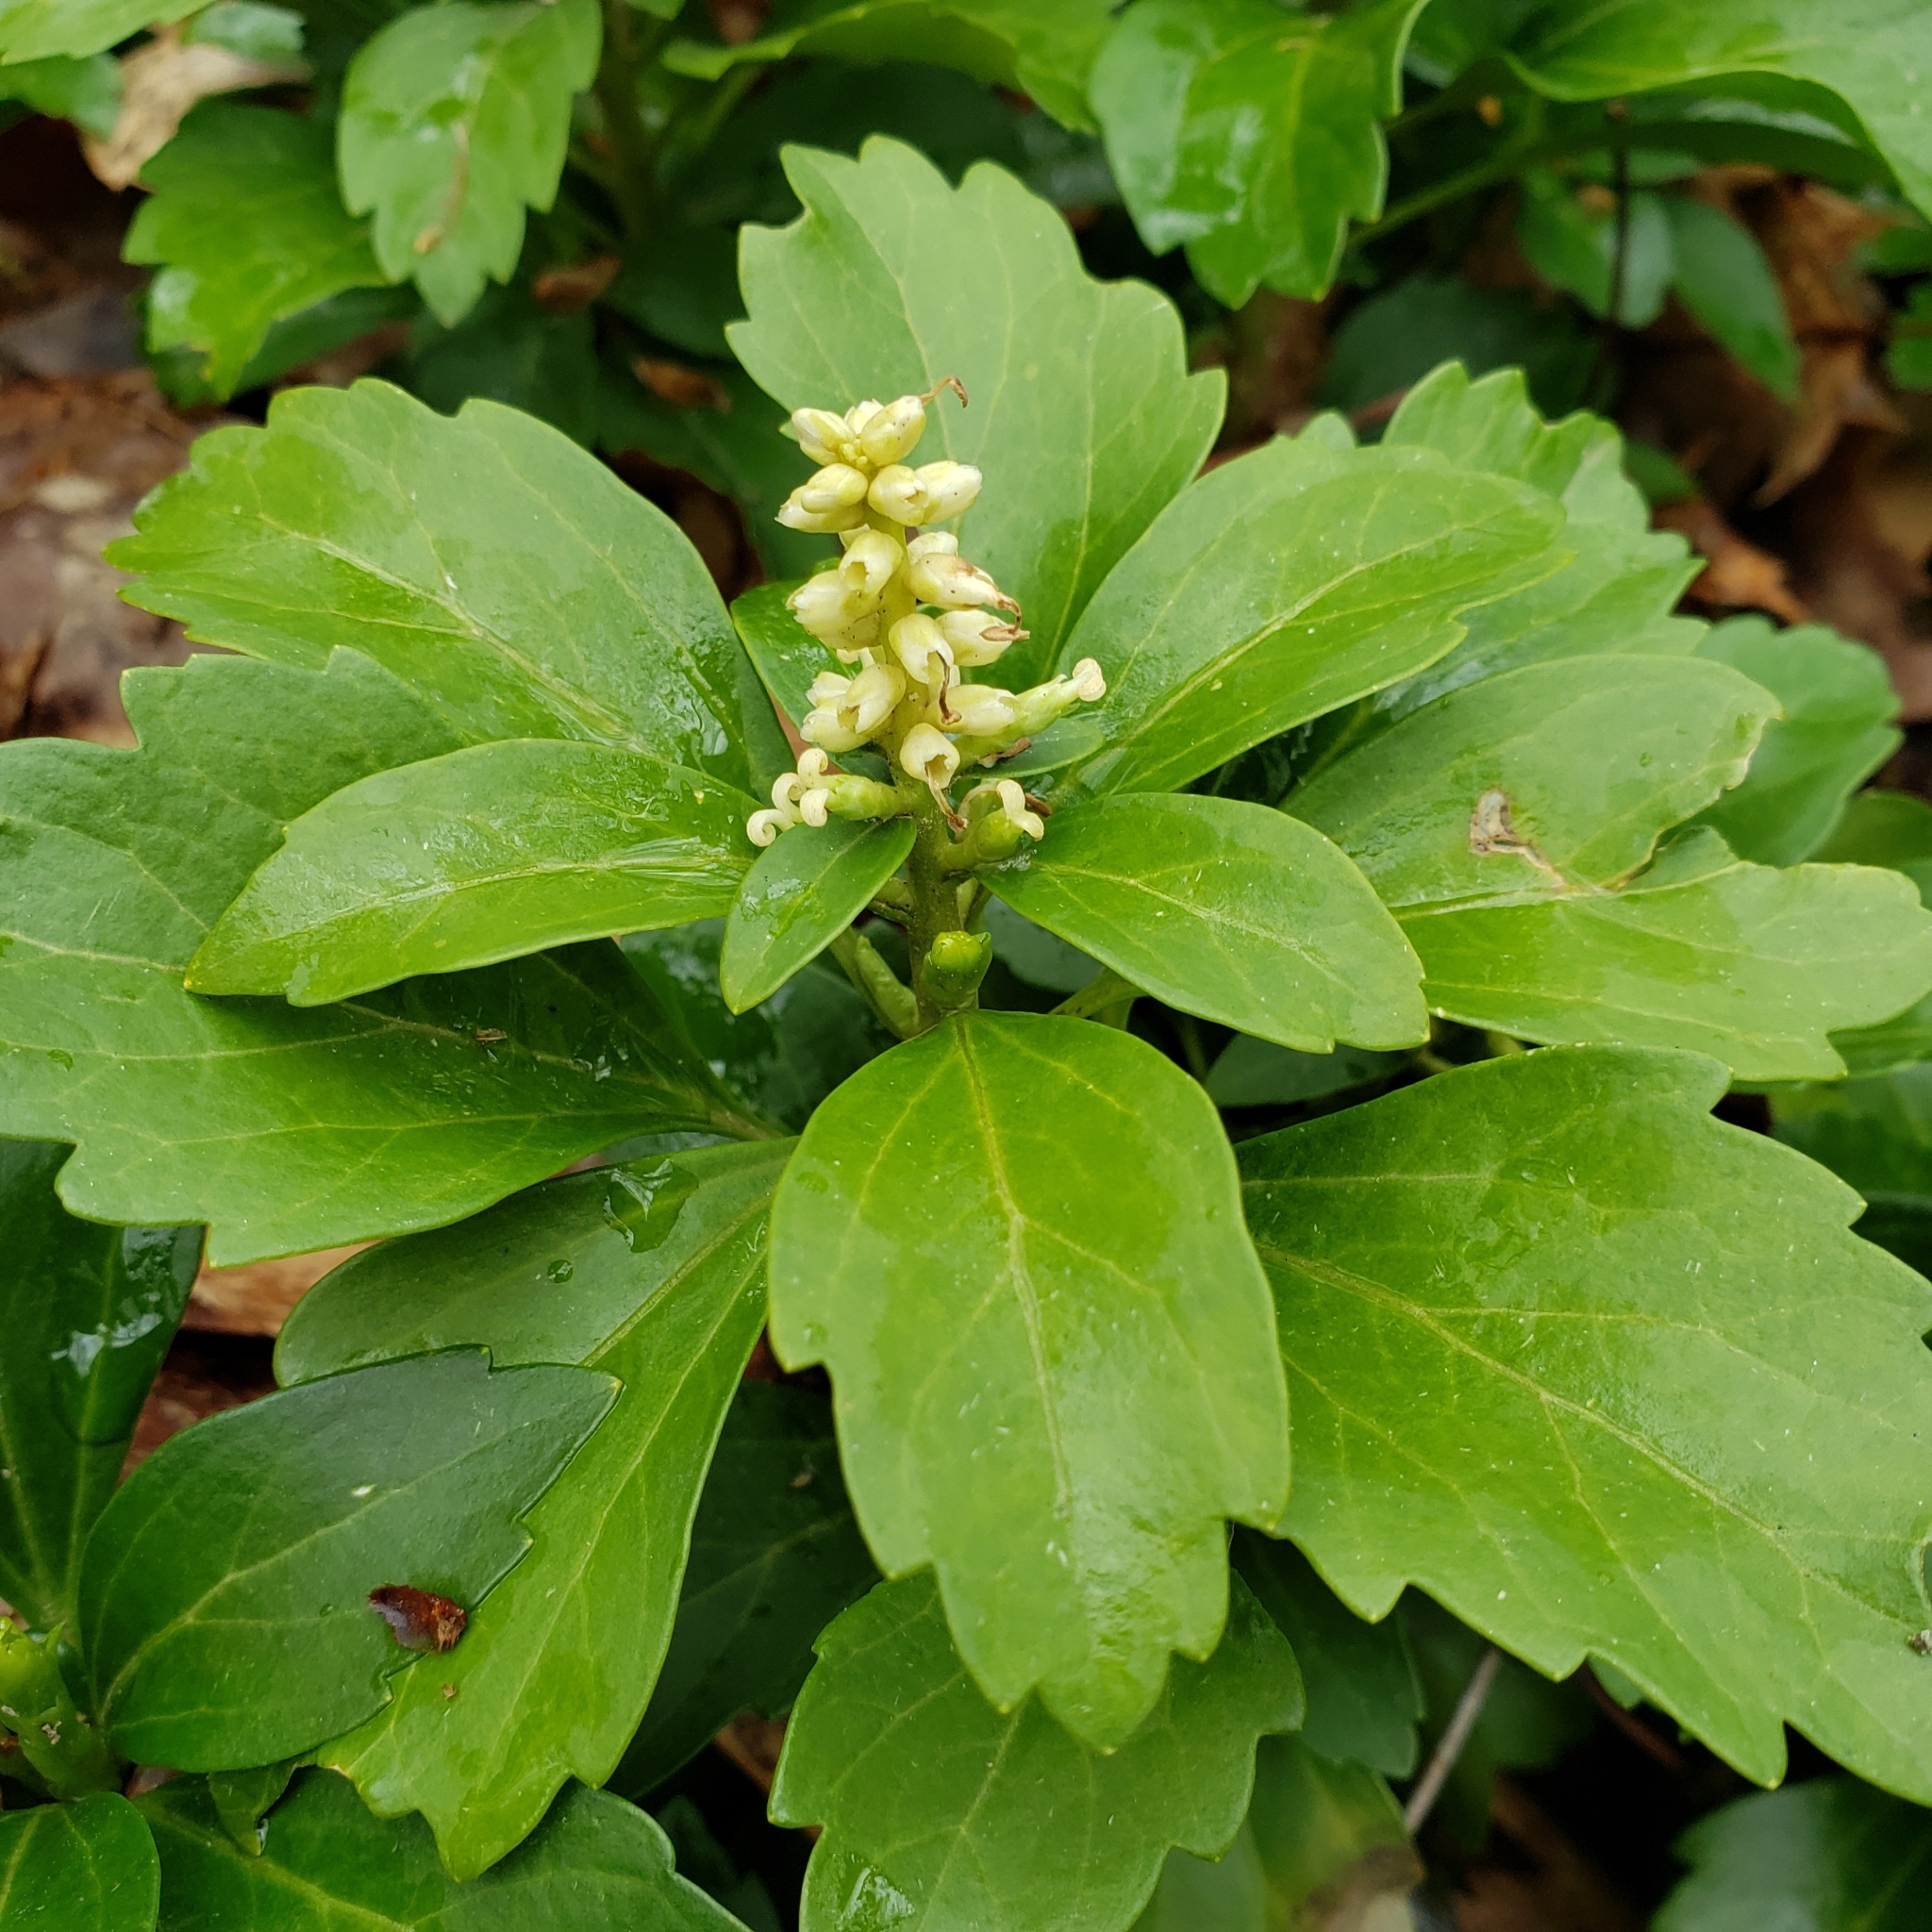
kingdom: Plantae
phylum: Tracheophyta
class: Magnoliopsida
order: Buxales
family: Buxaceae
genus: Pachysandra
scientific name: Pachysandra terminalis
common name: Japanese pachysandra
